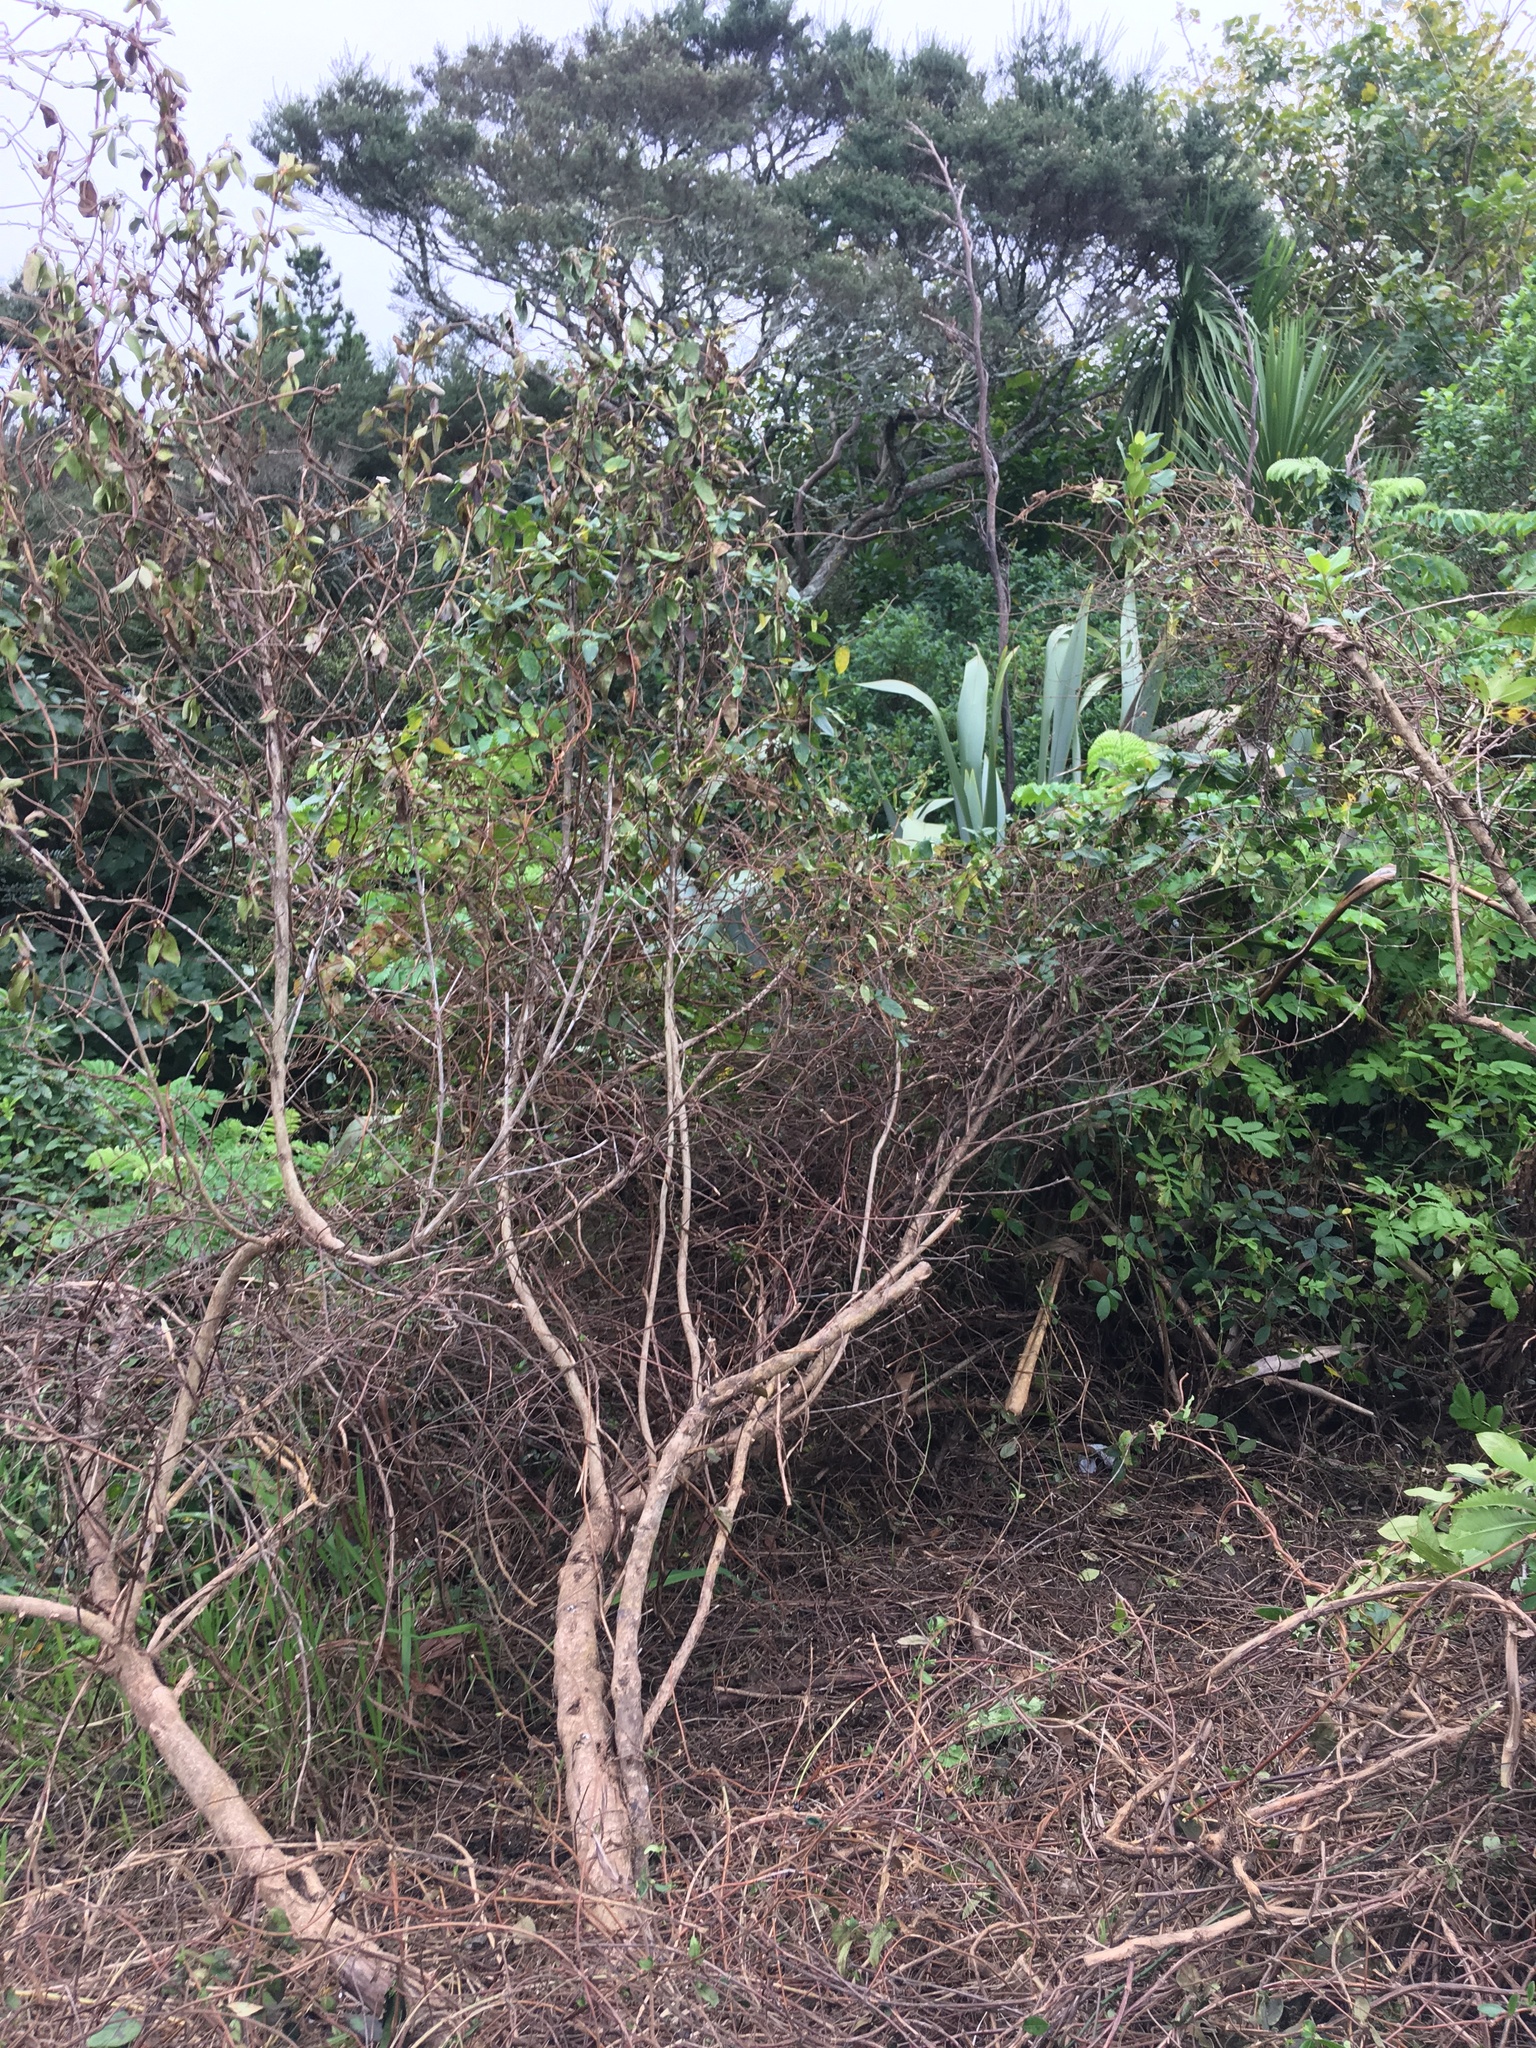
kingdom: Plantae
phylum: Tracheophyta
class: Magnoliopsida
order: Geraniales
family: Melianthaceae
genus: Melianthus
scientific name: Melianthus major
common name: Honey-flower
